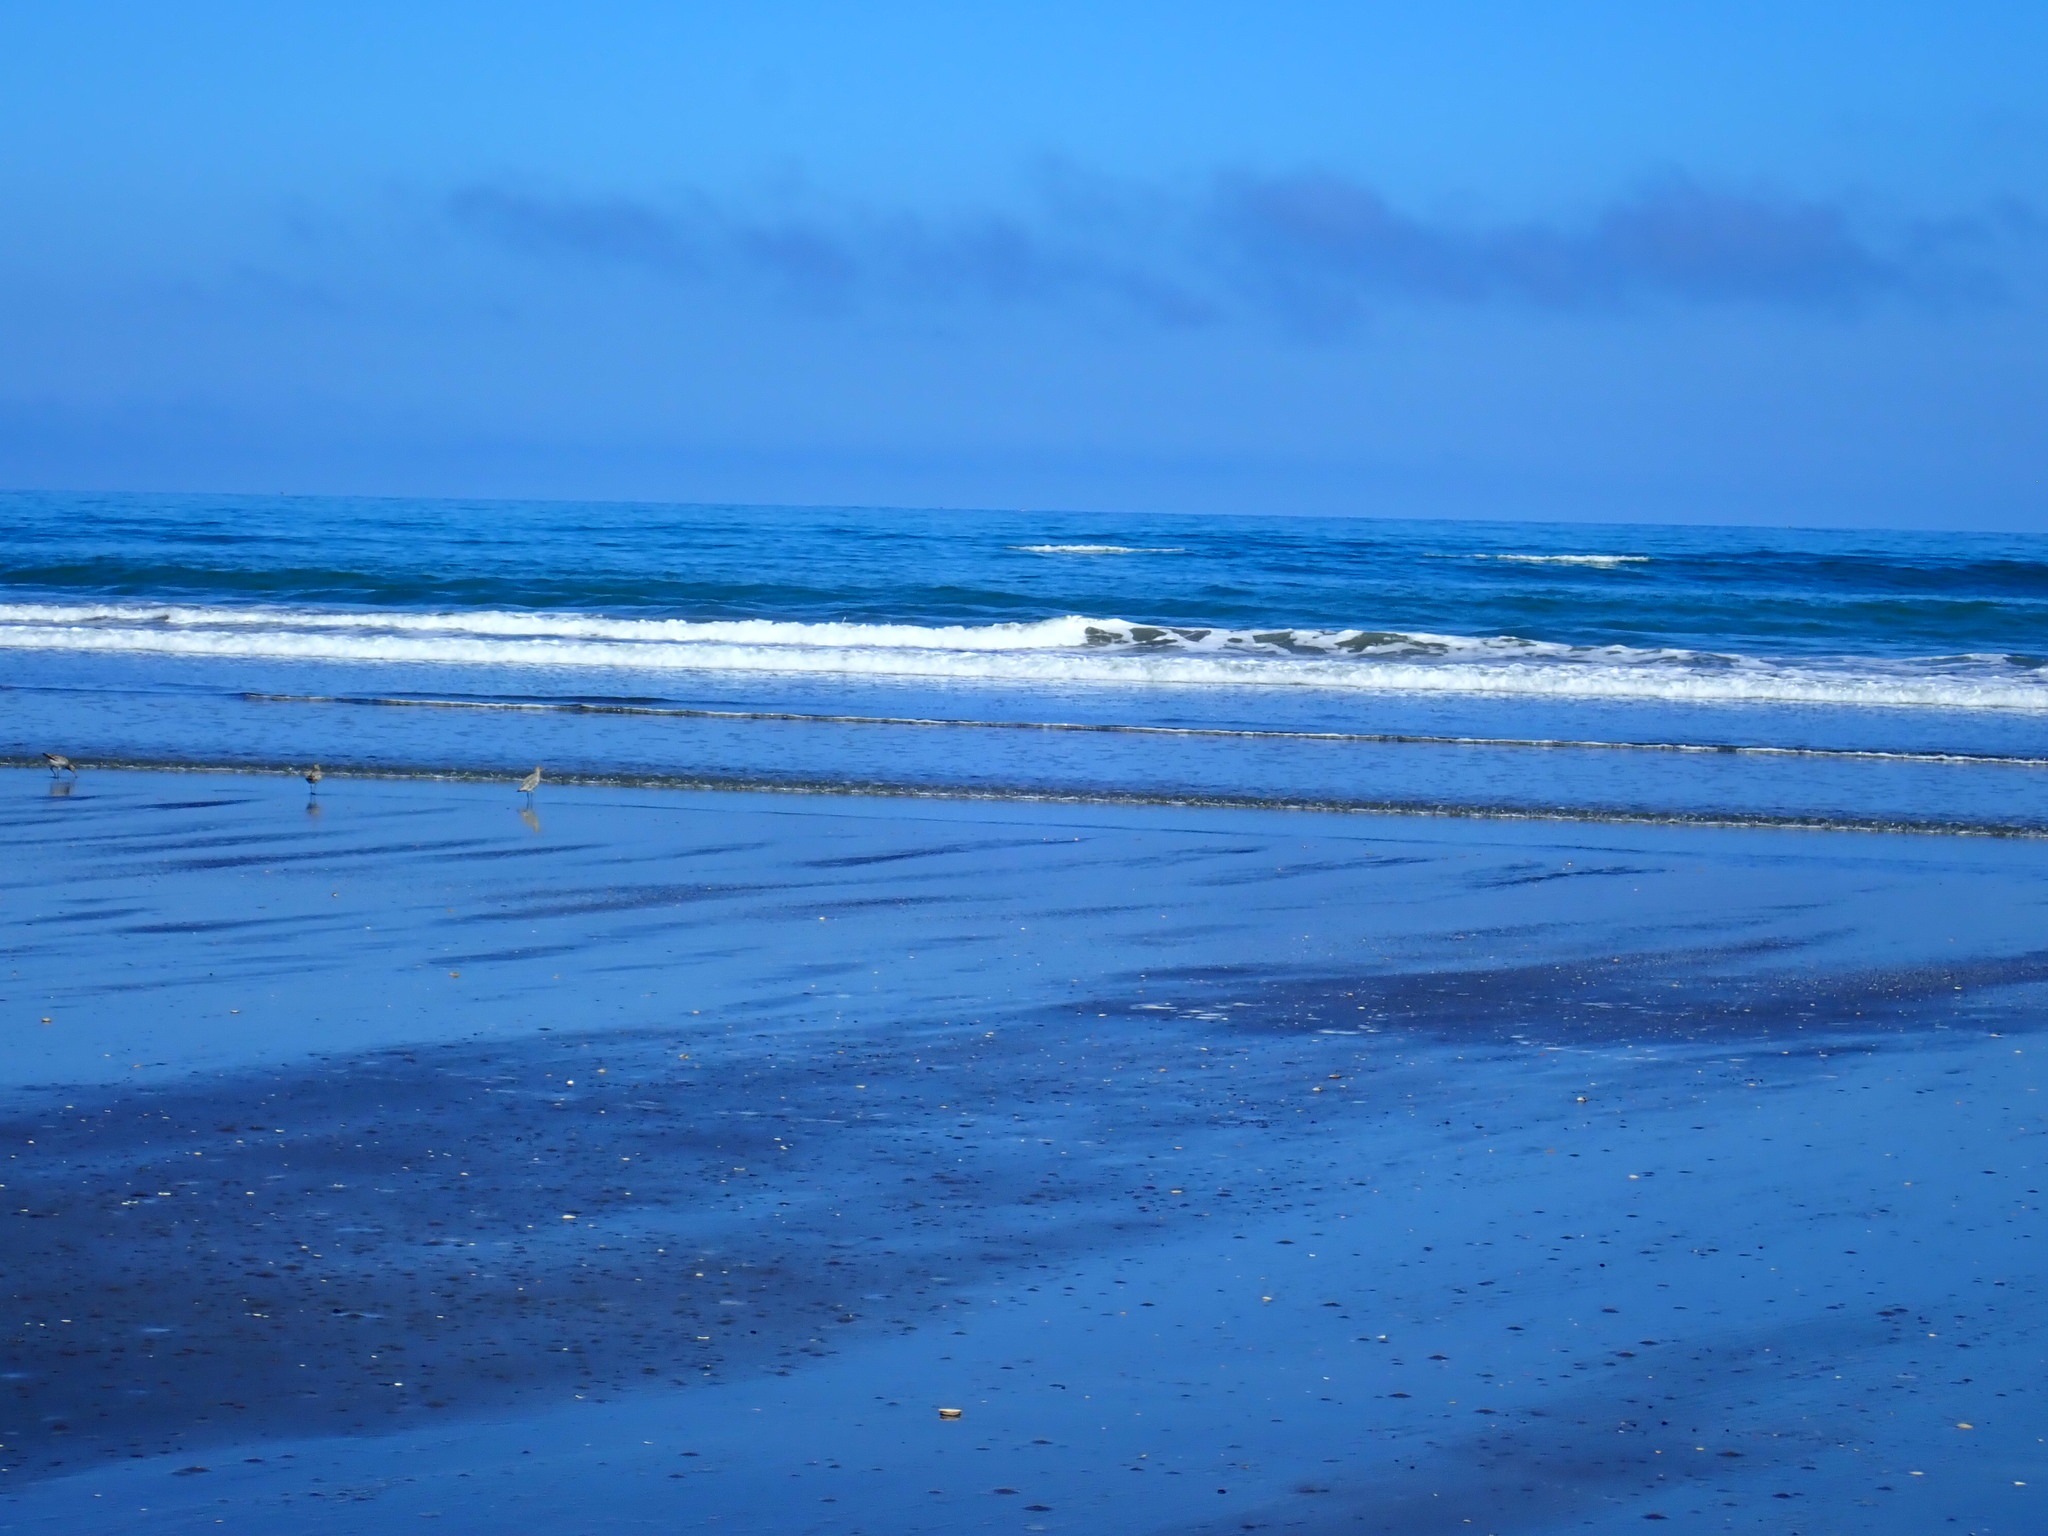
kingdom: Animalia
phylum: Chordata
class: Aves
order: Charadriiformes
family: Scolopacidae
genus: Limosa
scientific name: Limosa lapponica
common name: Bar-tailed godwit
